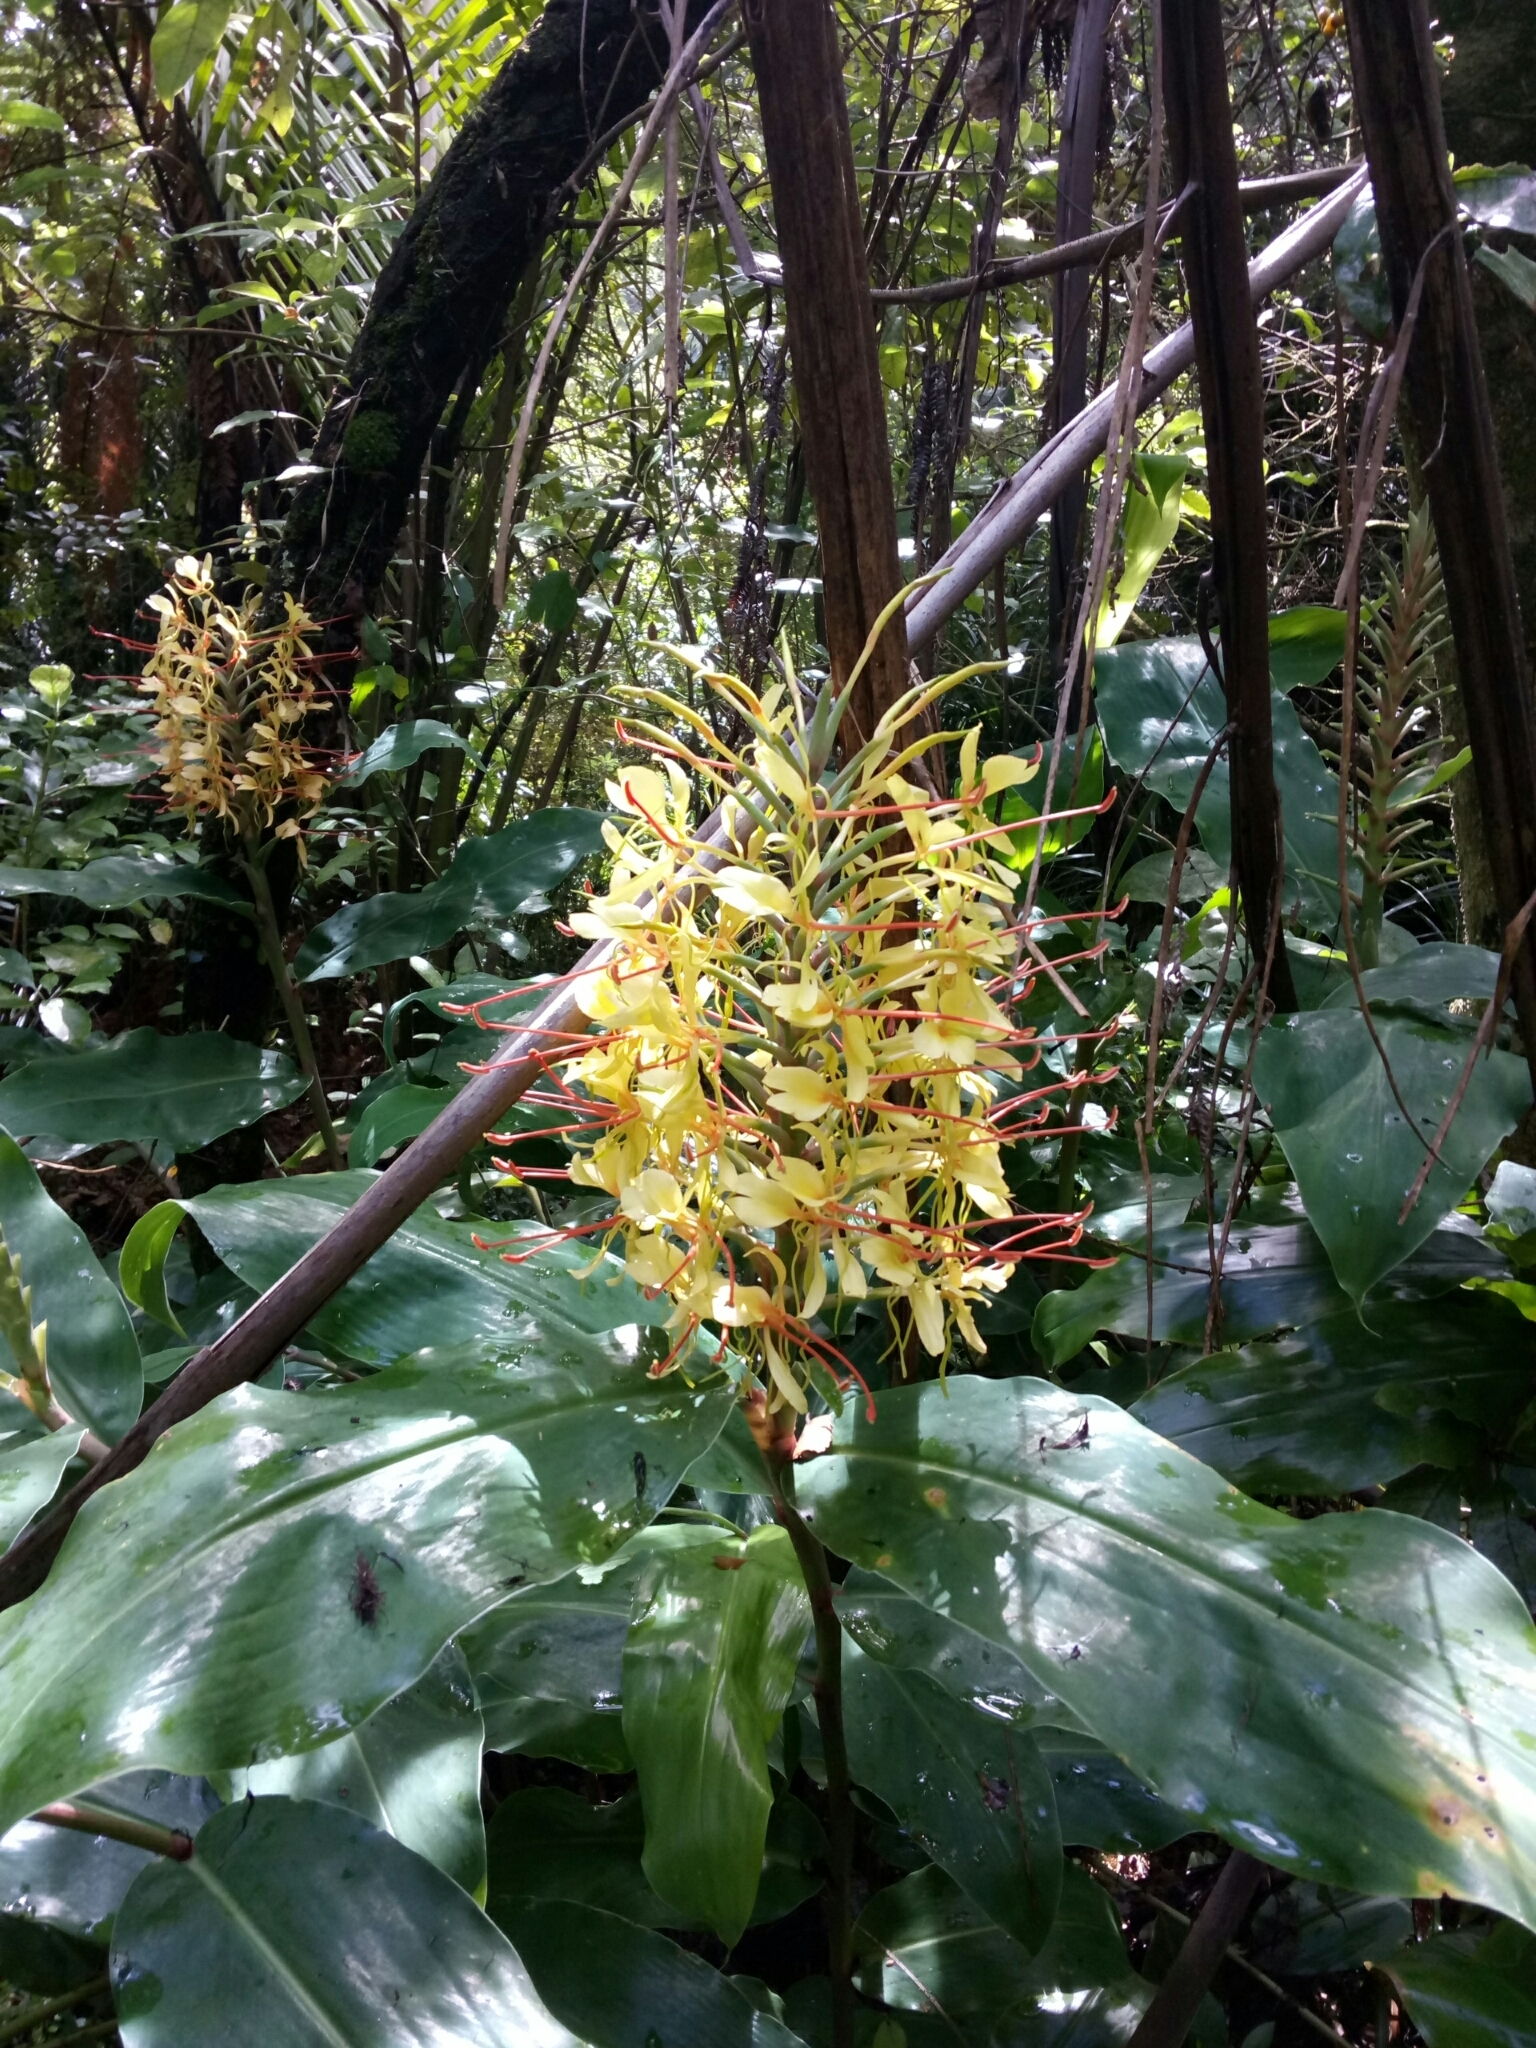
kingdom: Plantae
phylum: Tracheophyta
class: Liliopsida
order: Zingiberales
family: Zingiberaceae
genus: Hedychium
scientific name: Hedychium gardnerianum
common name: Himalayan ginger
